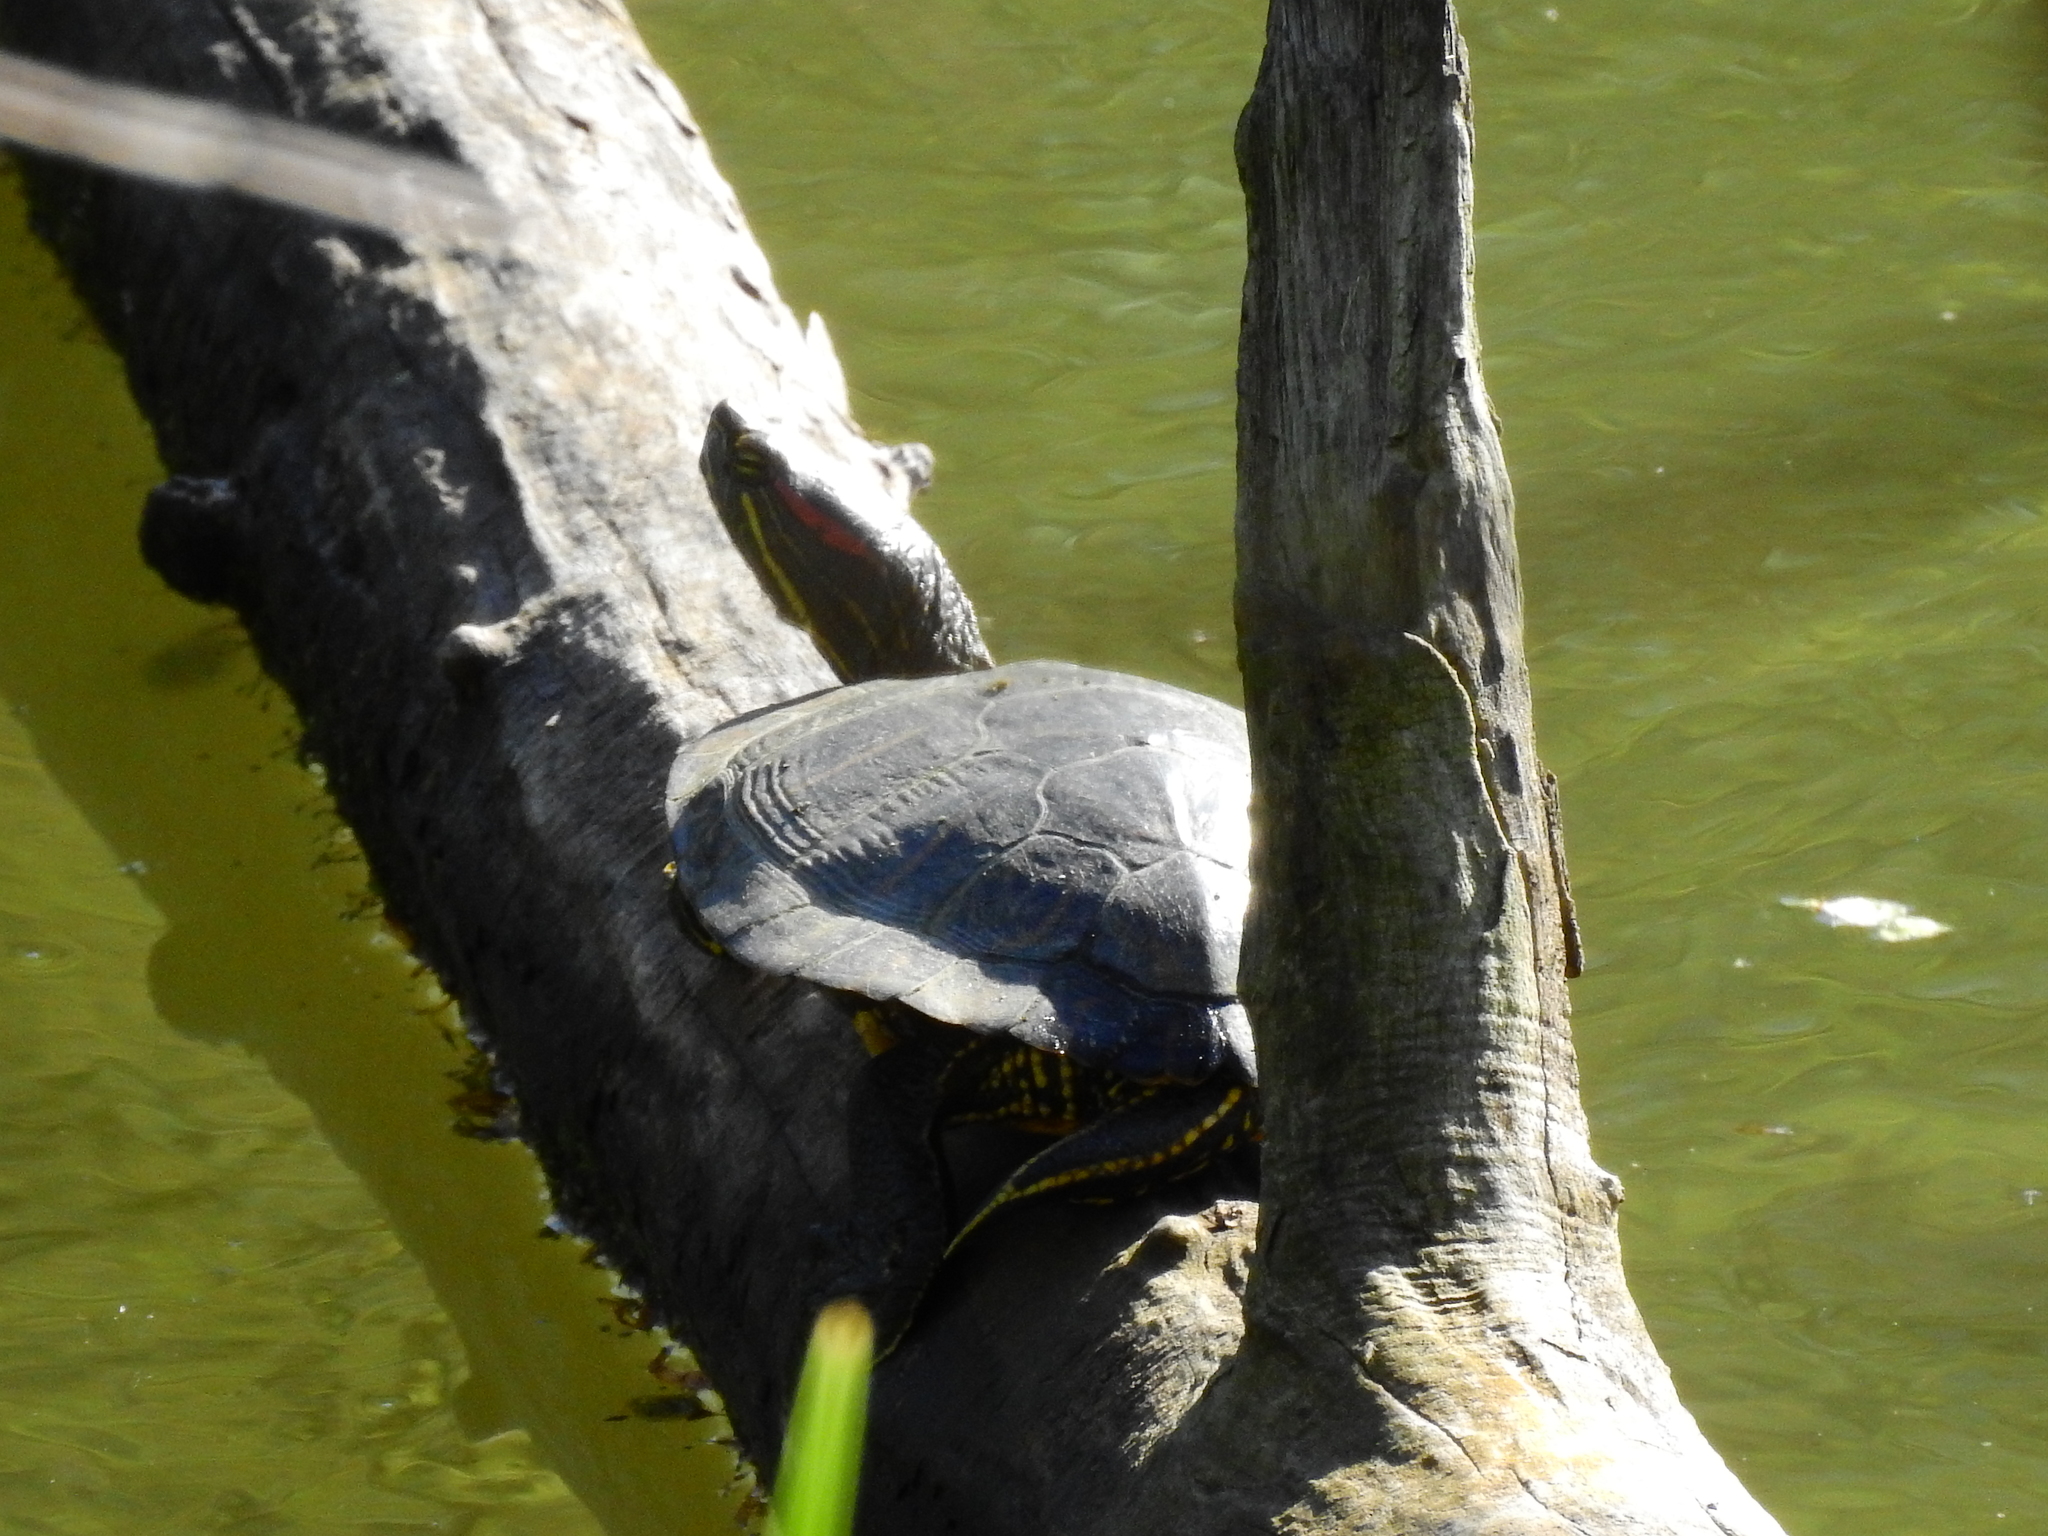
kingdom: Animalia
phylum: Chordata
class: Testudines
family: Emydidae
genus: Trachemys
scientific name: Trachemys scripta
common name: Slider
